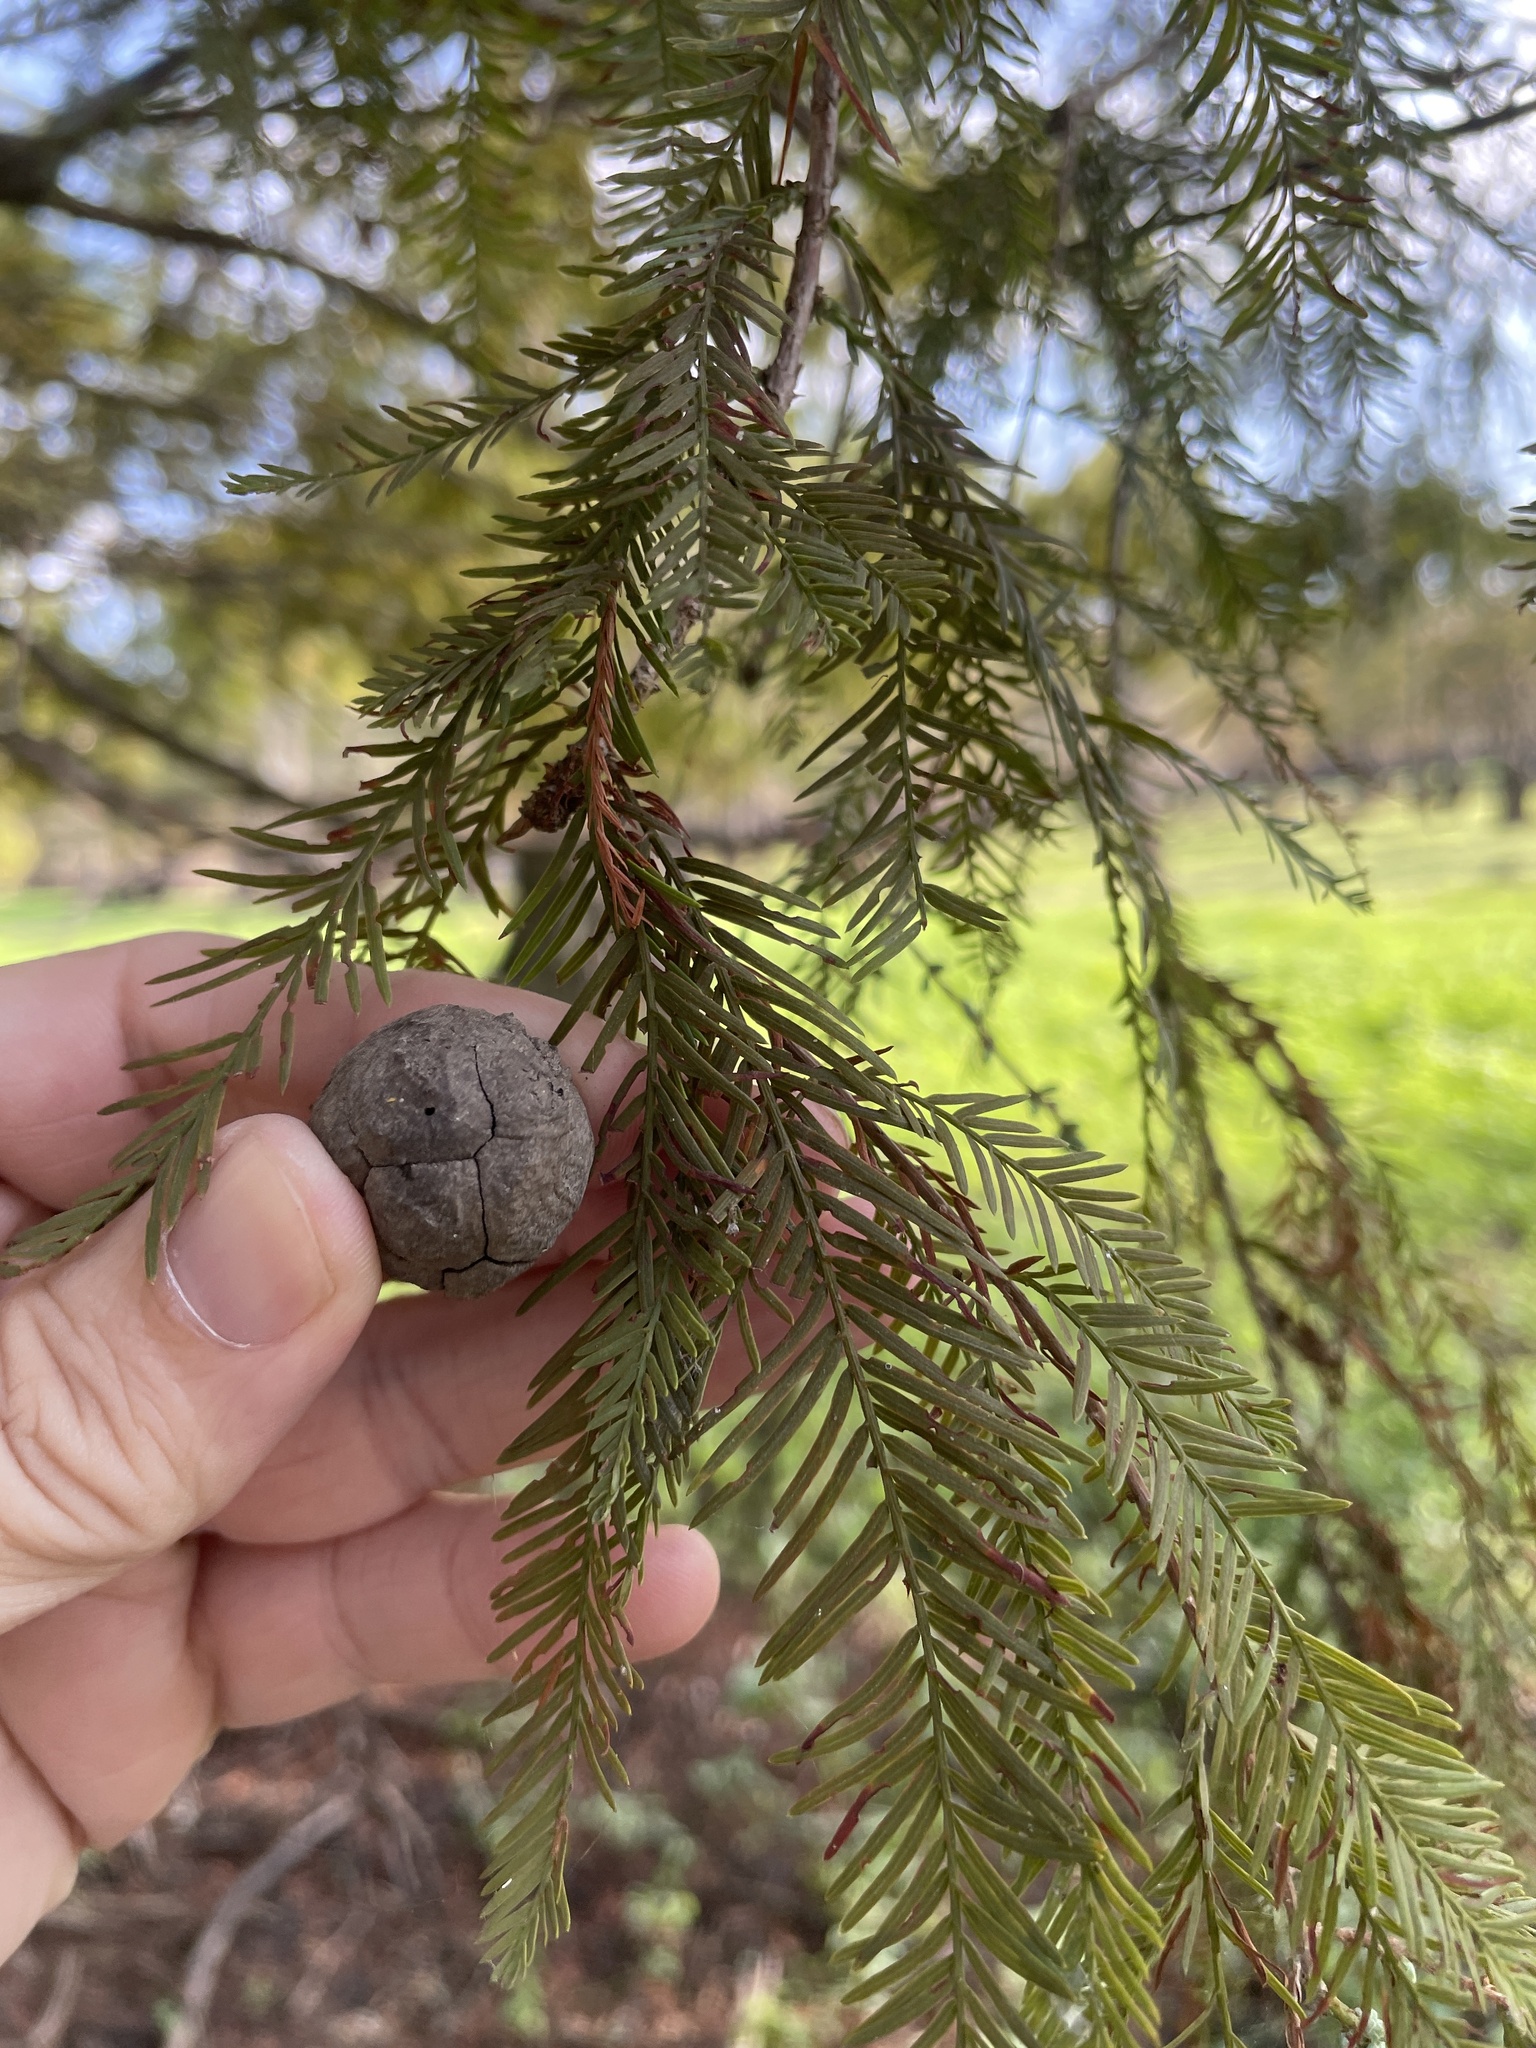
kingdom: Plantae
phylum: Tracheophyta
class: Pinopsida
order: Pinales
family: Cupressaceae
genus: Taxodium
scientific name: Taxodium distichum
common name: Bald cypress
